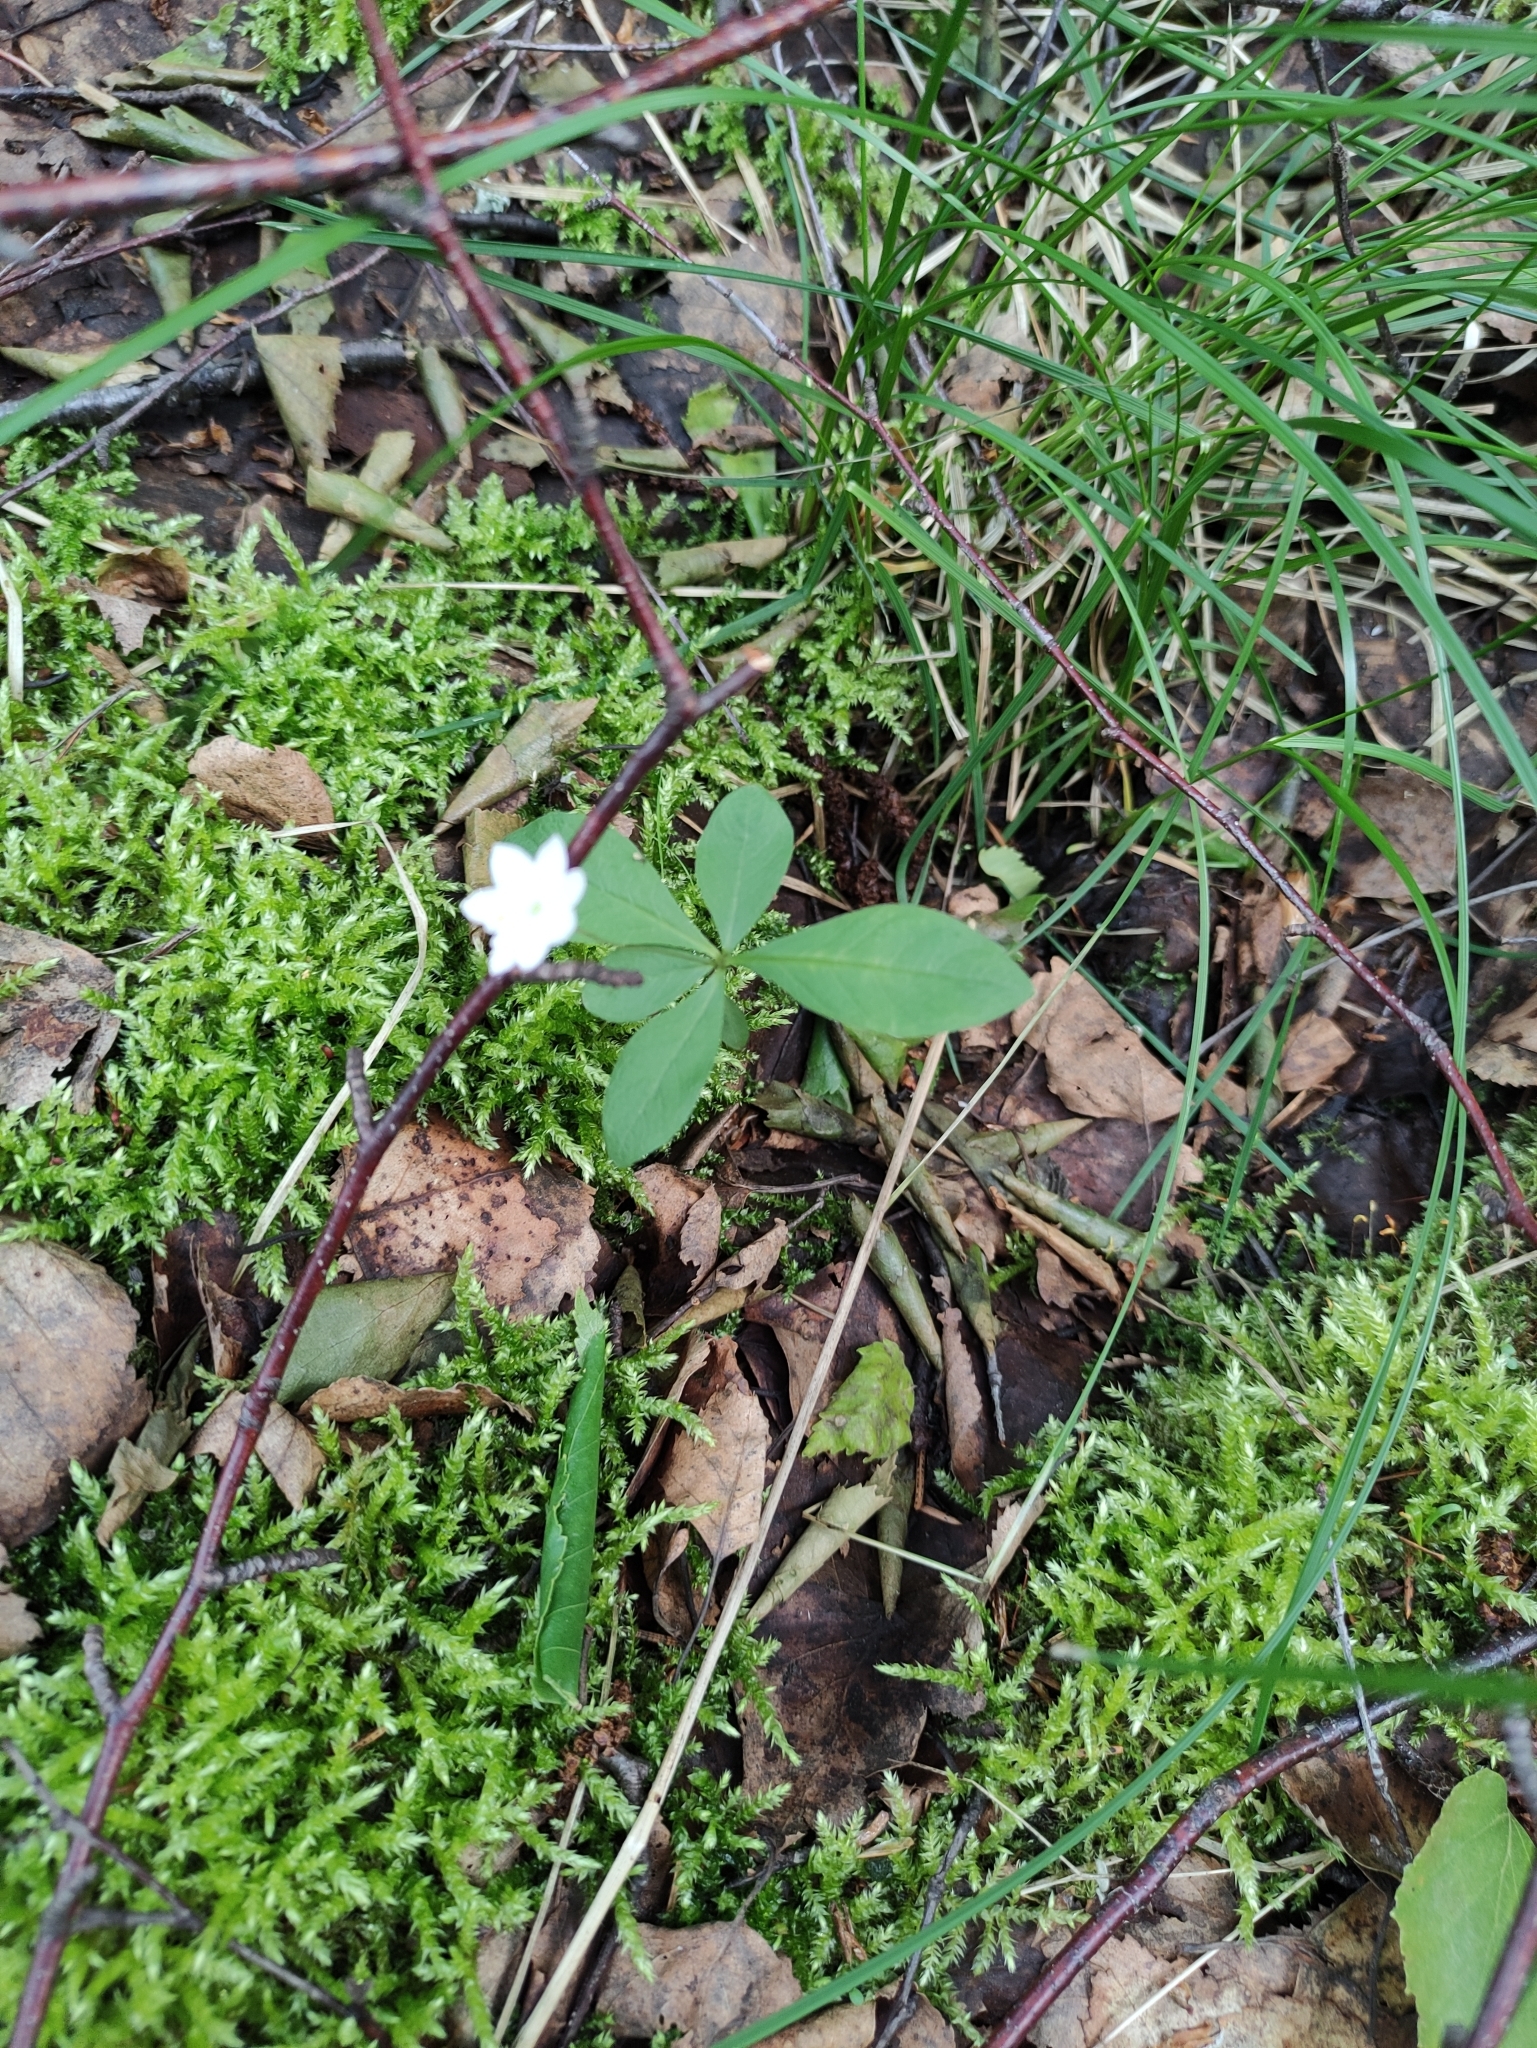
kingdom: Plantae
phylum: Tracheophyta
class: Magnoliopsida
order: Ericales
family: Primulaceae
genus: Lysimachia
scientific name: Lysimachia europaea
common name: Arctic starflower
